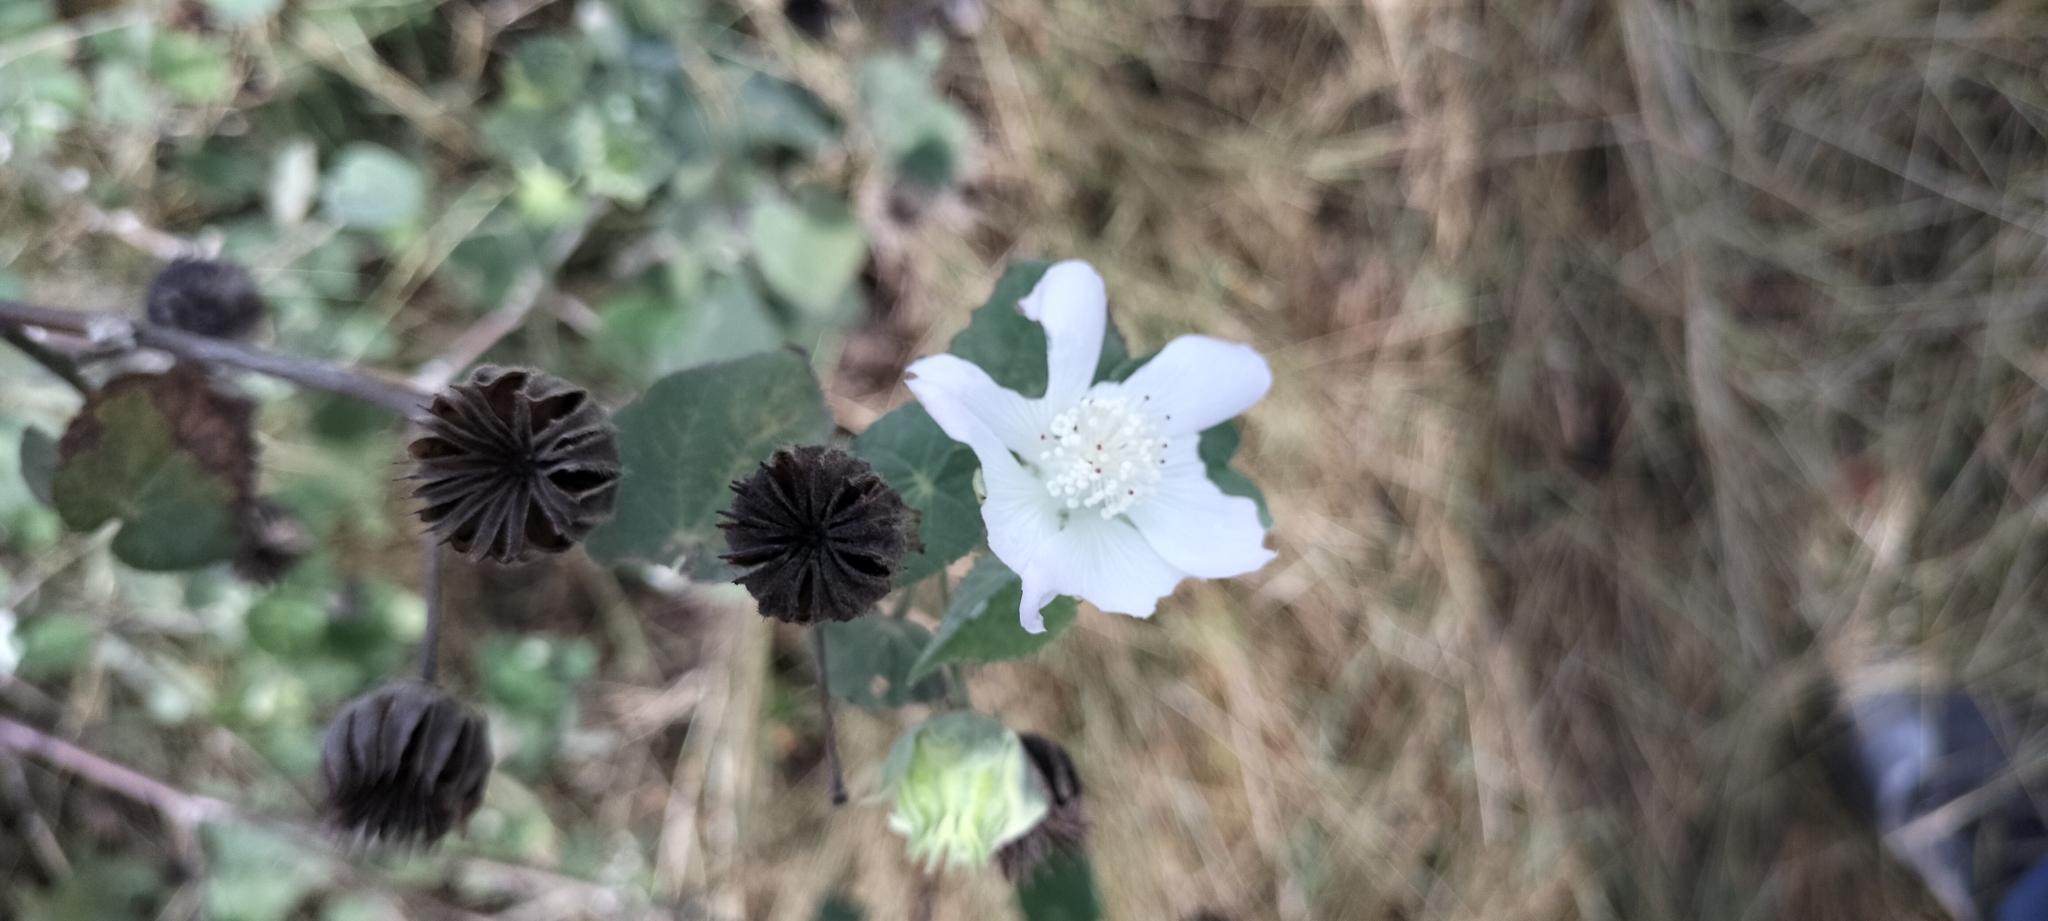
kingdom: Plantae
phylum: Tracheophyta
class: Magnoliopsida
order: Malvales
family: Malvaceae
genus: Abutilon
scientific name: Abutilon glabriflorum
